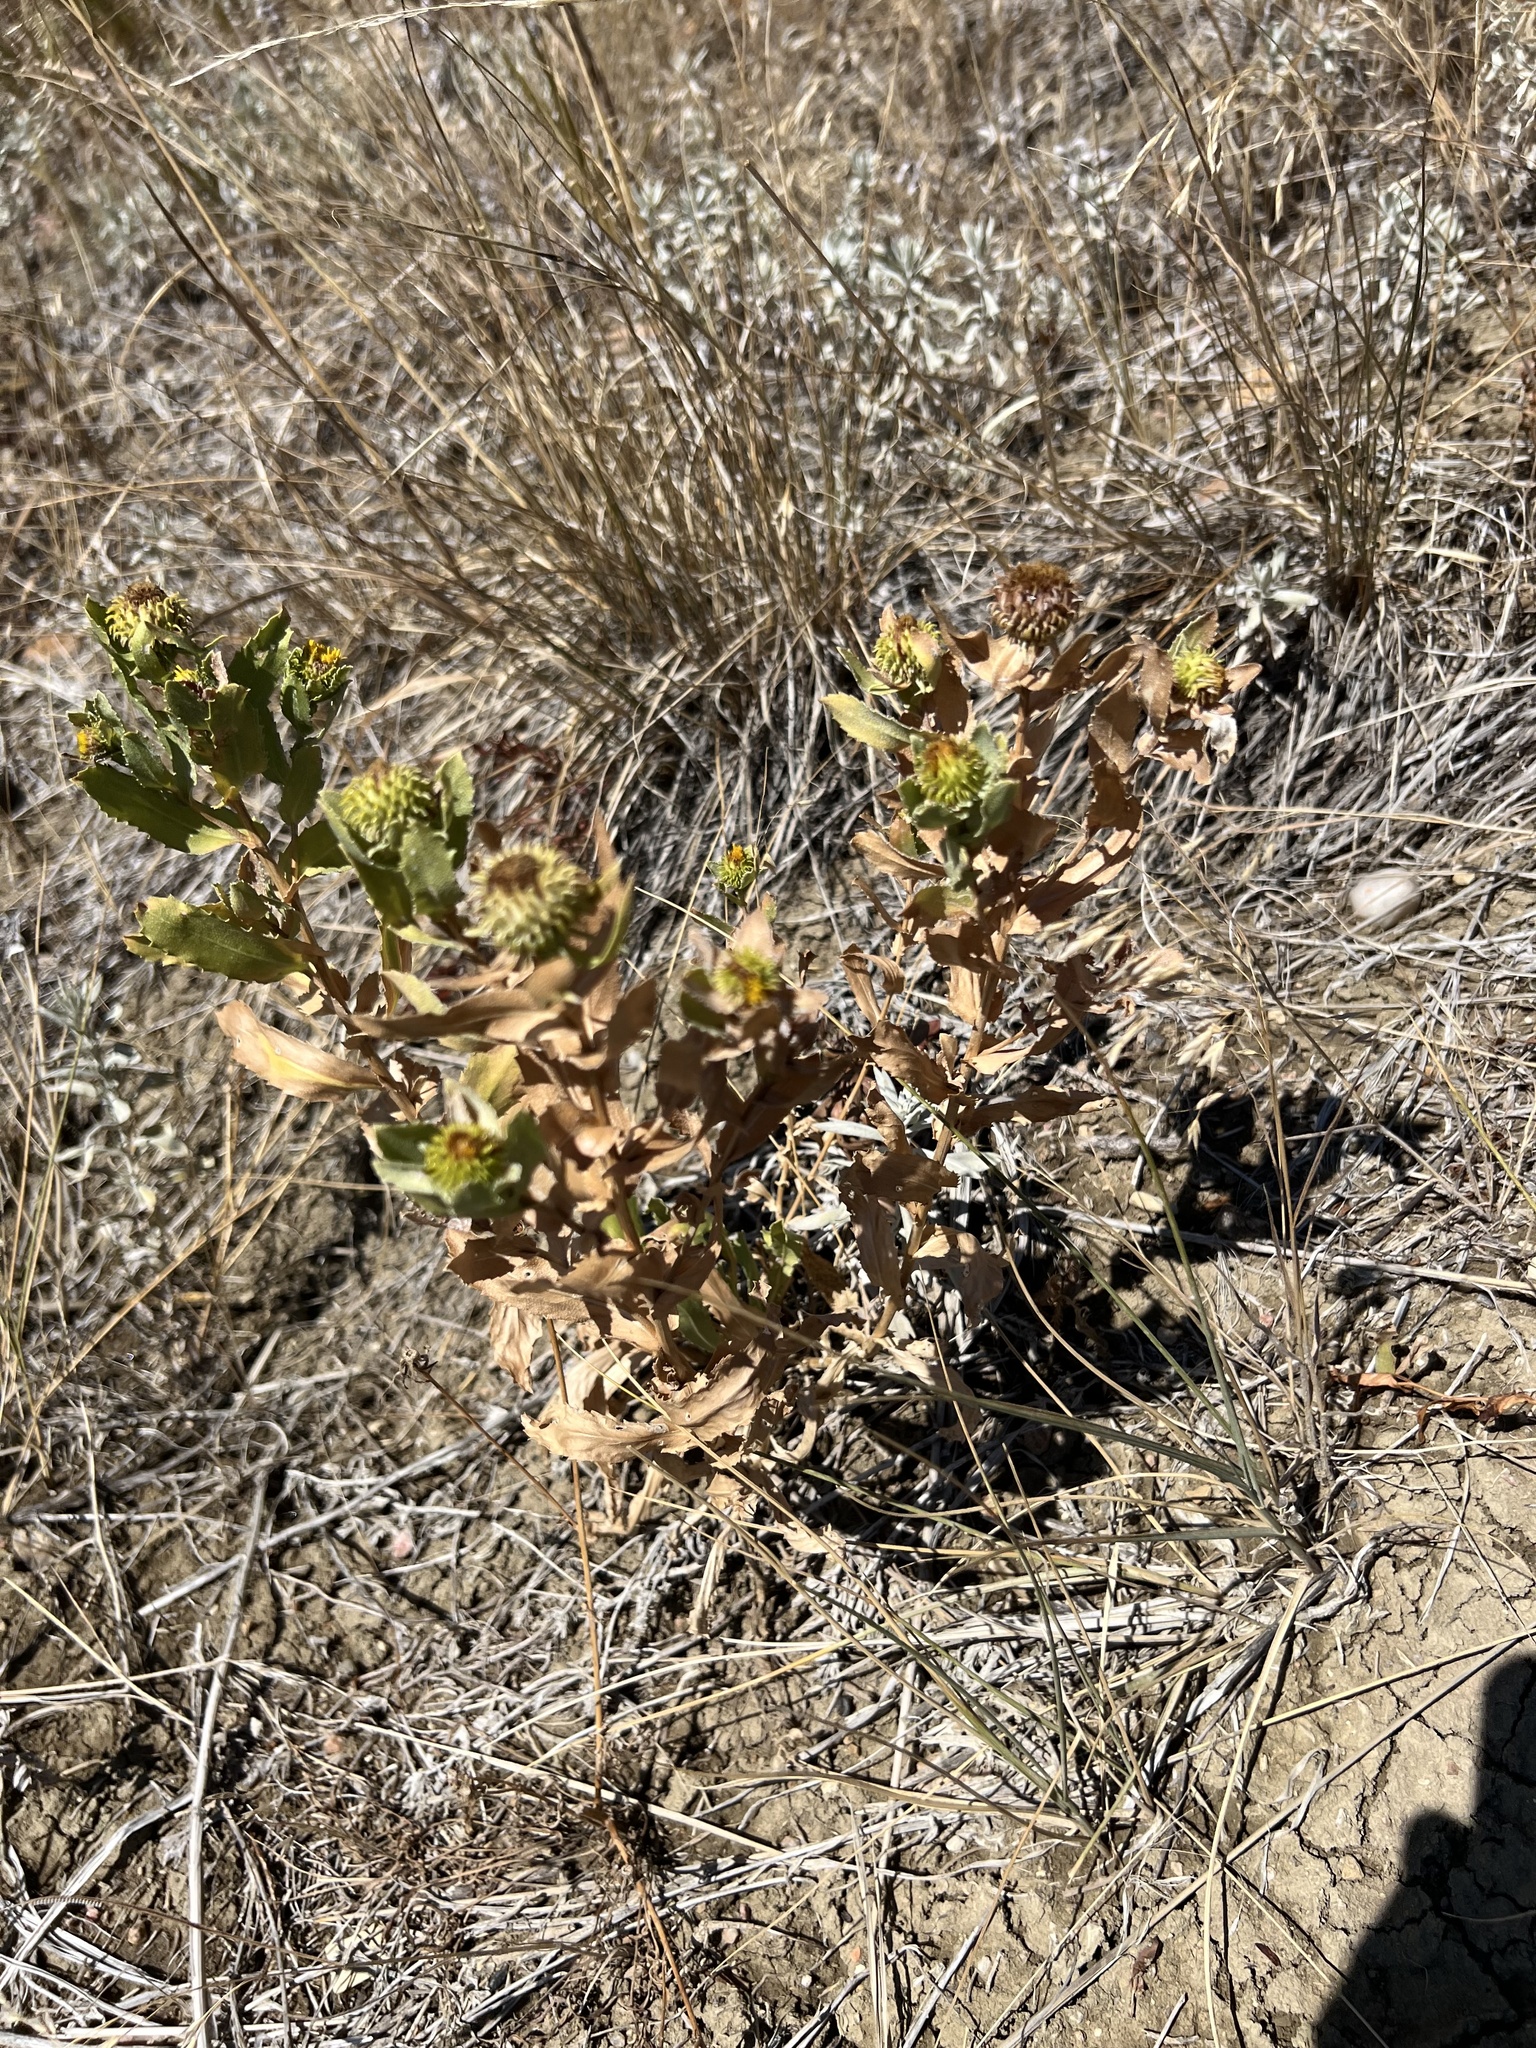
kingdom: Plantae
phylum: Tracheophyta
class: Magnoliopsida
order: Asterales
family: Asteraceae
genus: Grindelia
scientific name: Grindelia hirsutula
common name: Hairy gumweed
